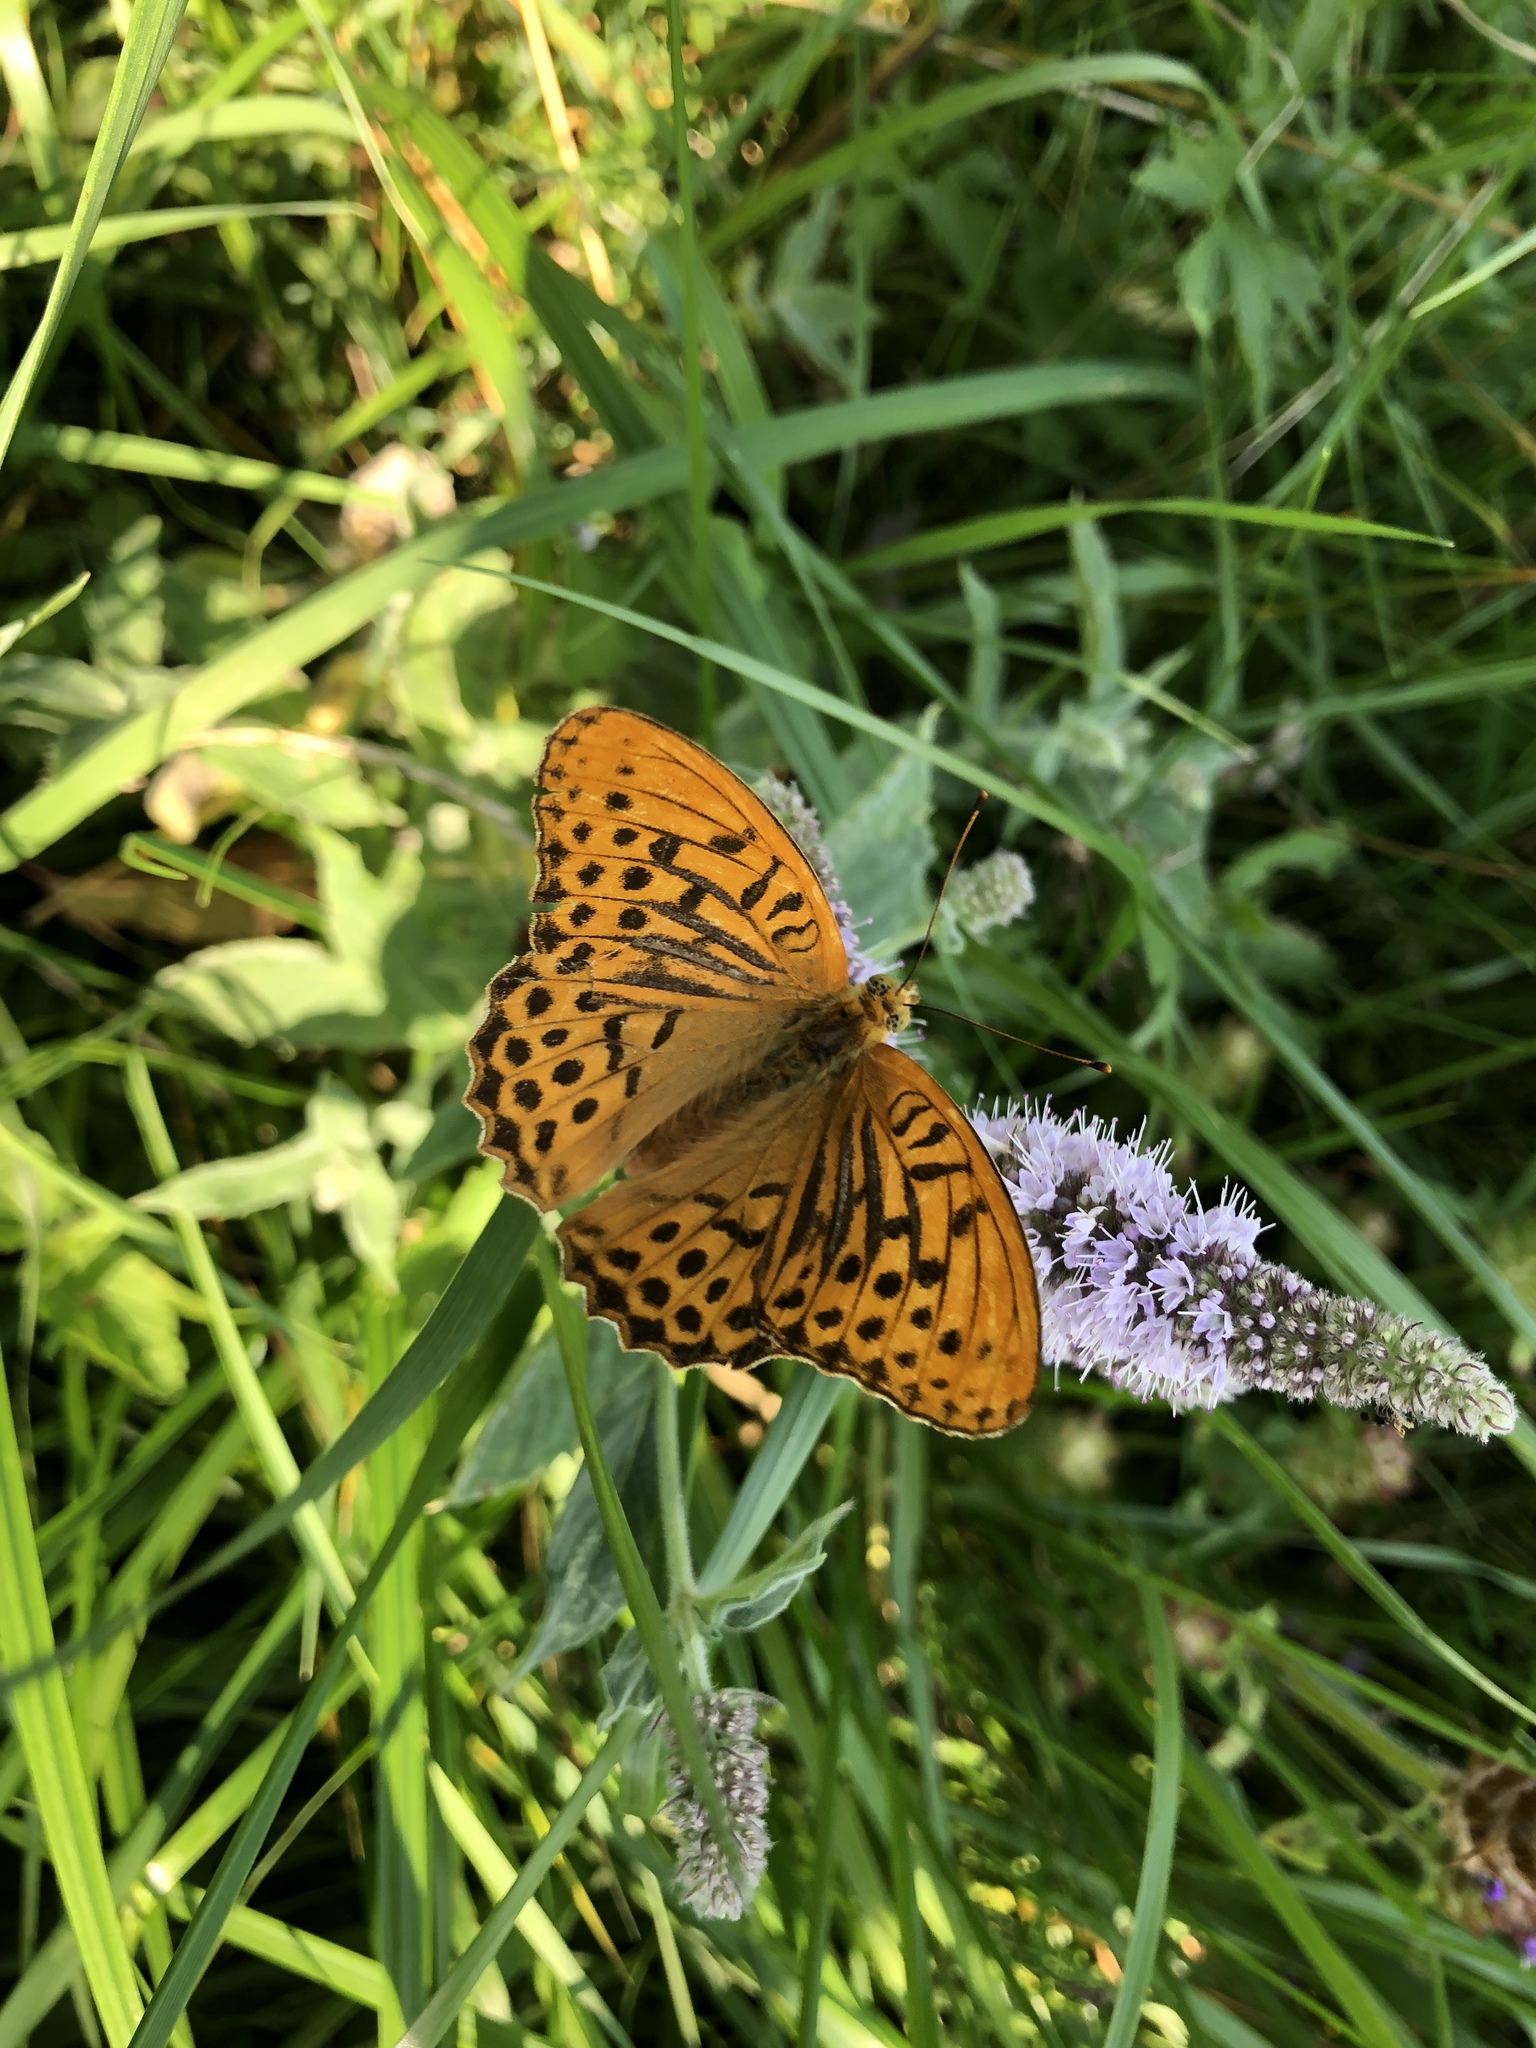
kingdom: Animalia
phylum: Arthropoda
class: Insecta
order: Lepidoptera
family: Nymphalidae
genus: Argynnis
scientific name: Argynnis paphia
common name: Silver-washed fritillary
